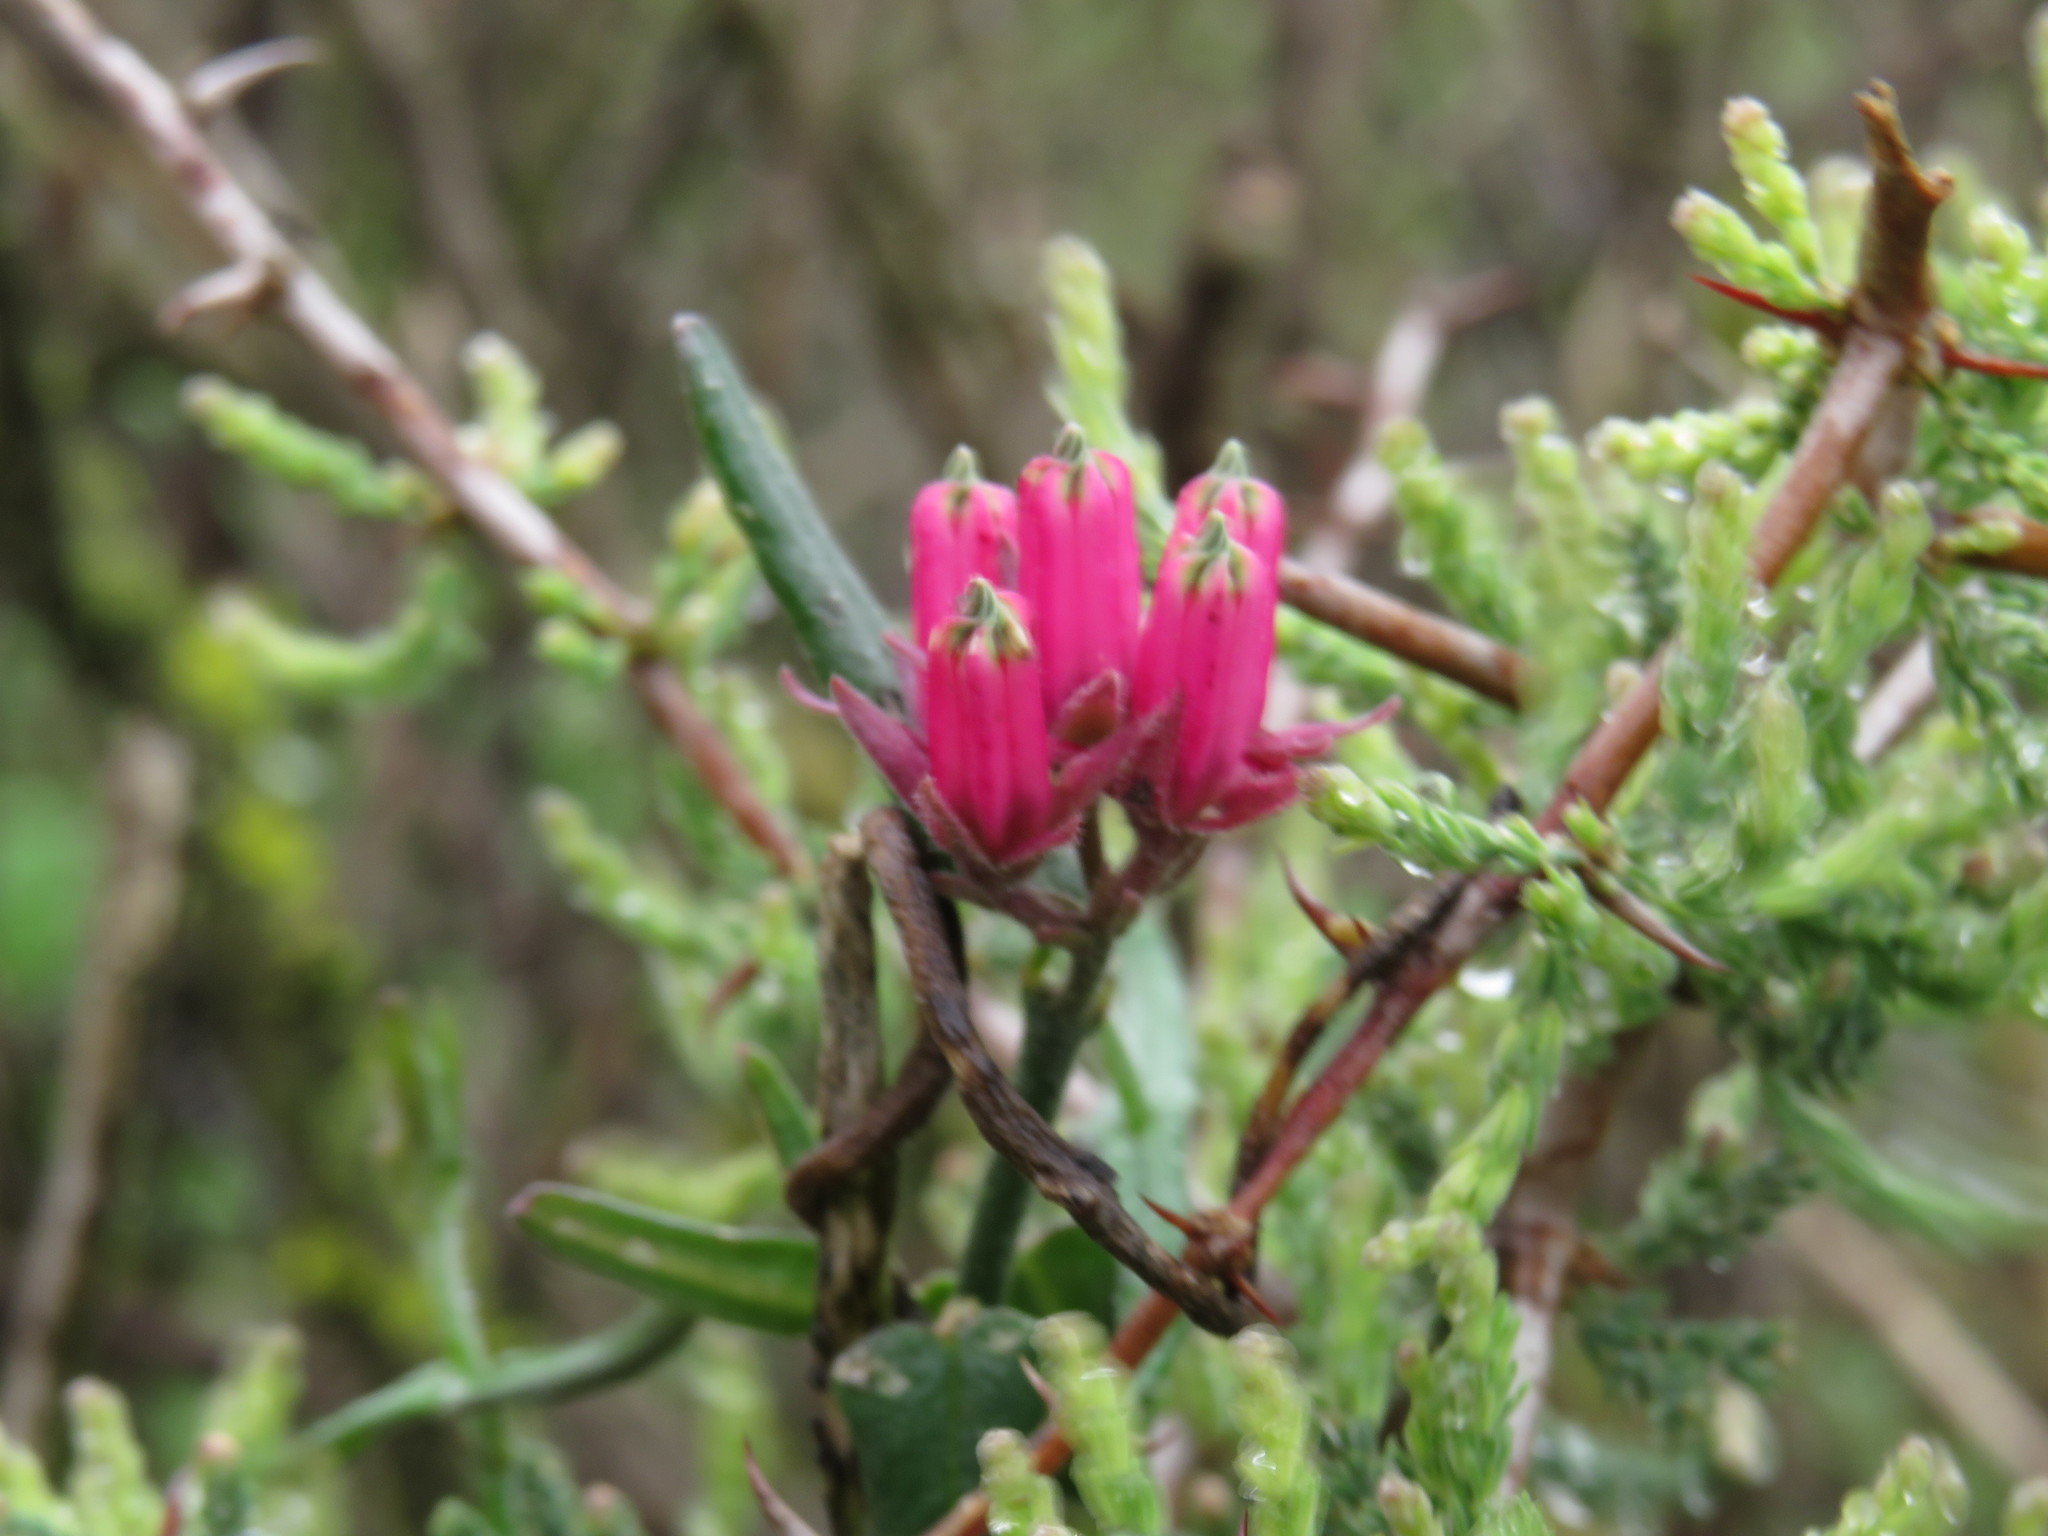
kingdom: Plantae
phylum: Tracheophyta
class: Magnoliopsida
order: Gentianales
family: Apocynaceae
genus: Microloma
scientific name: Microloma sagittatum
